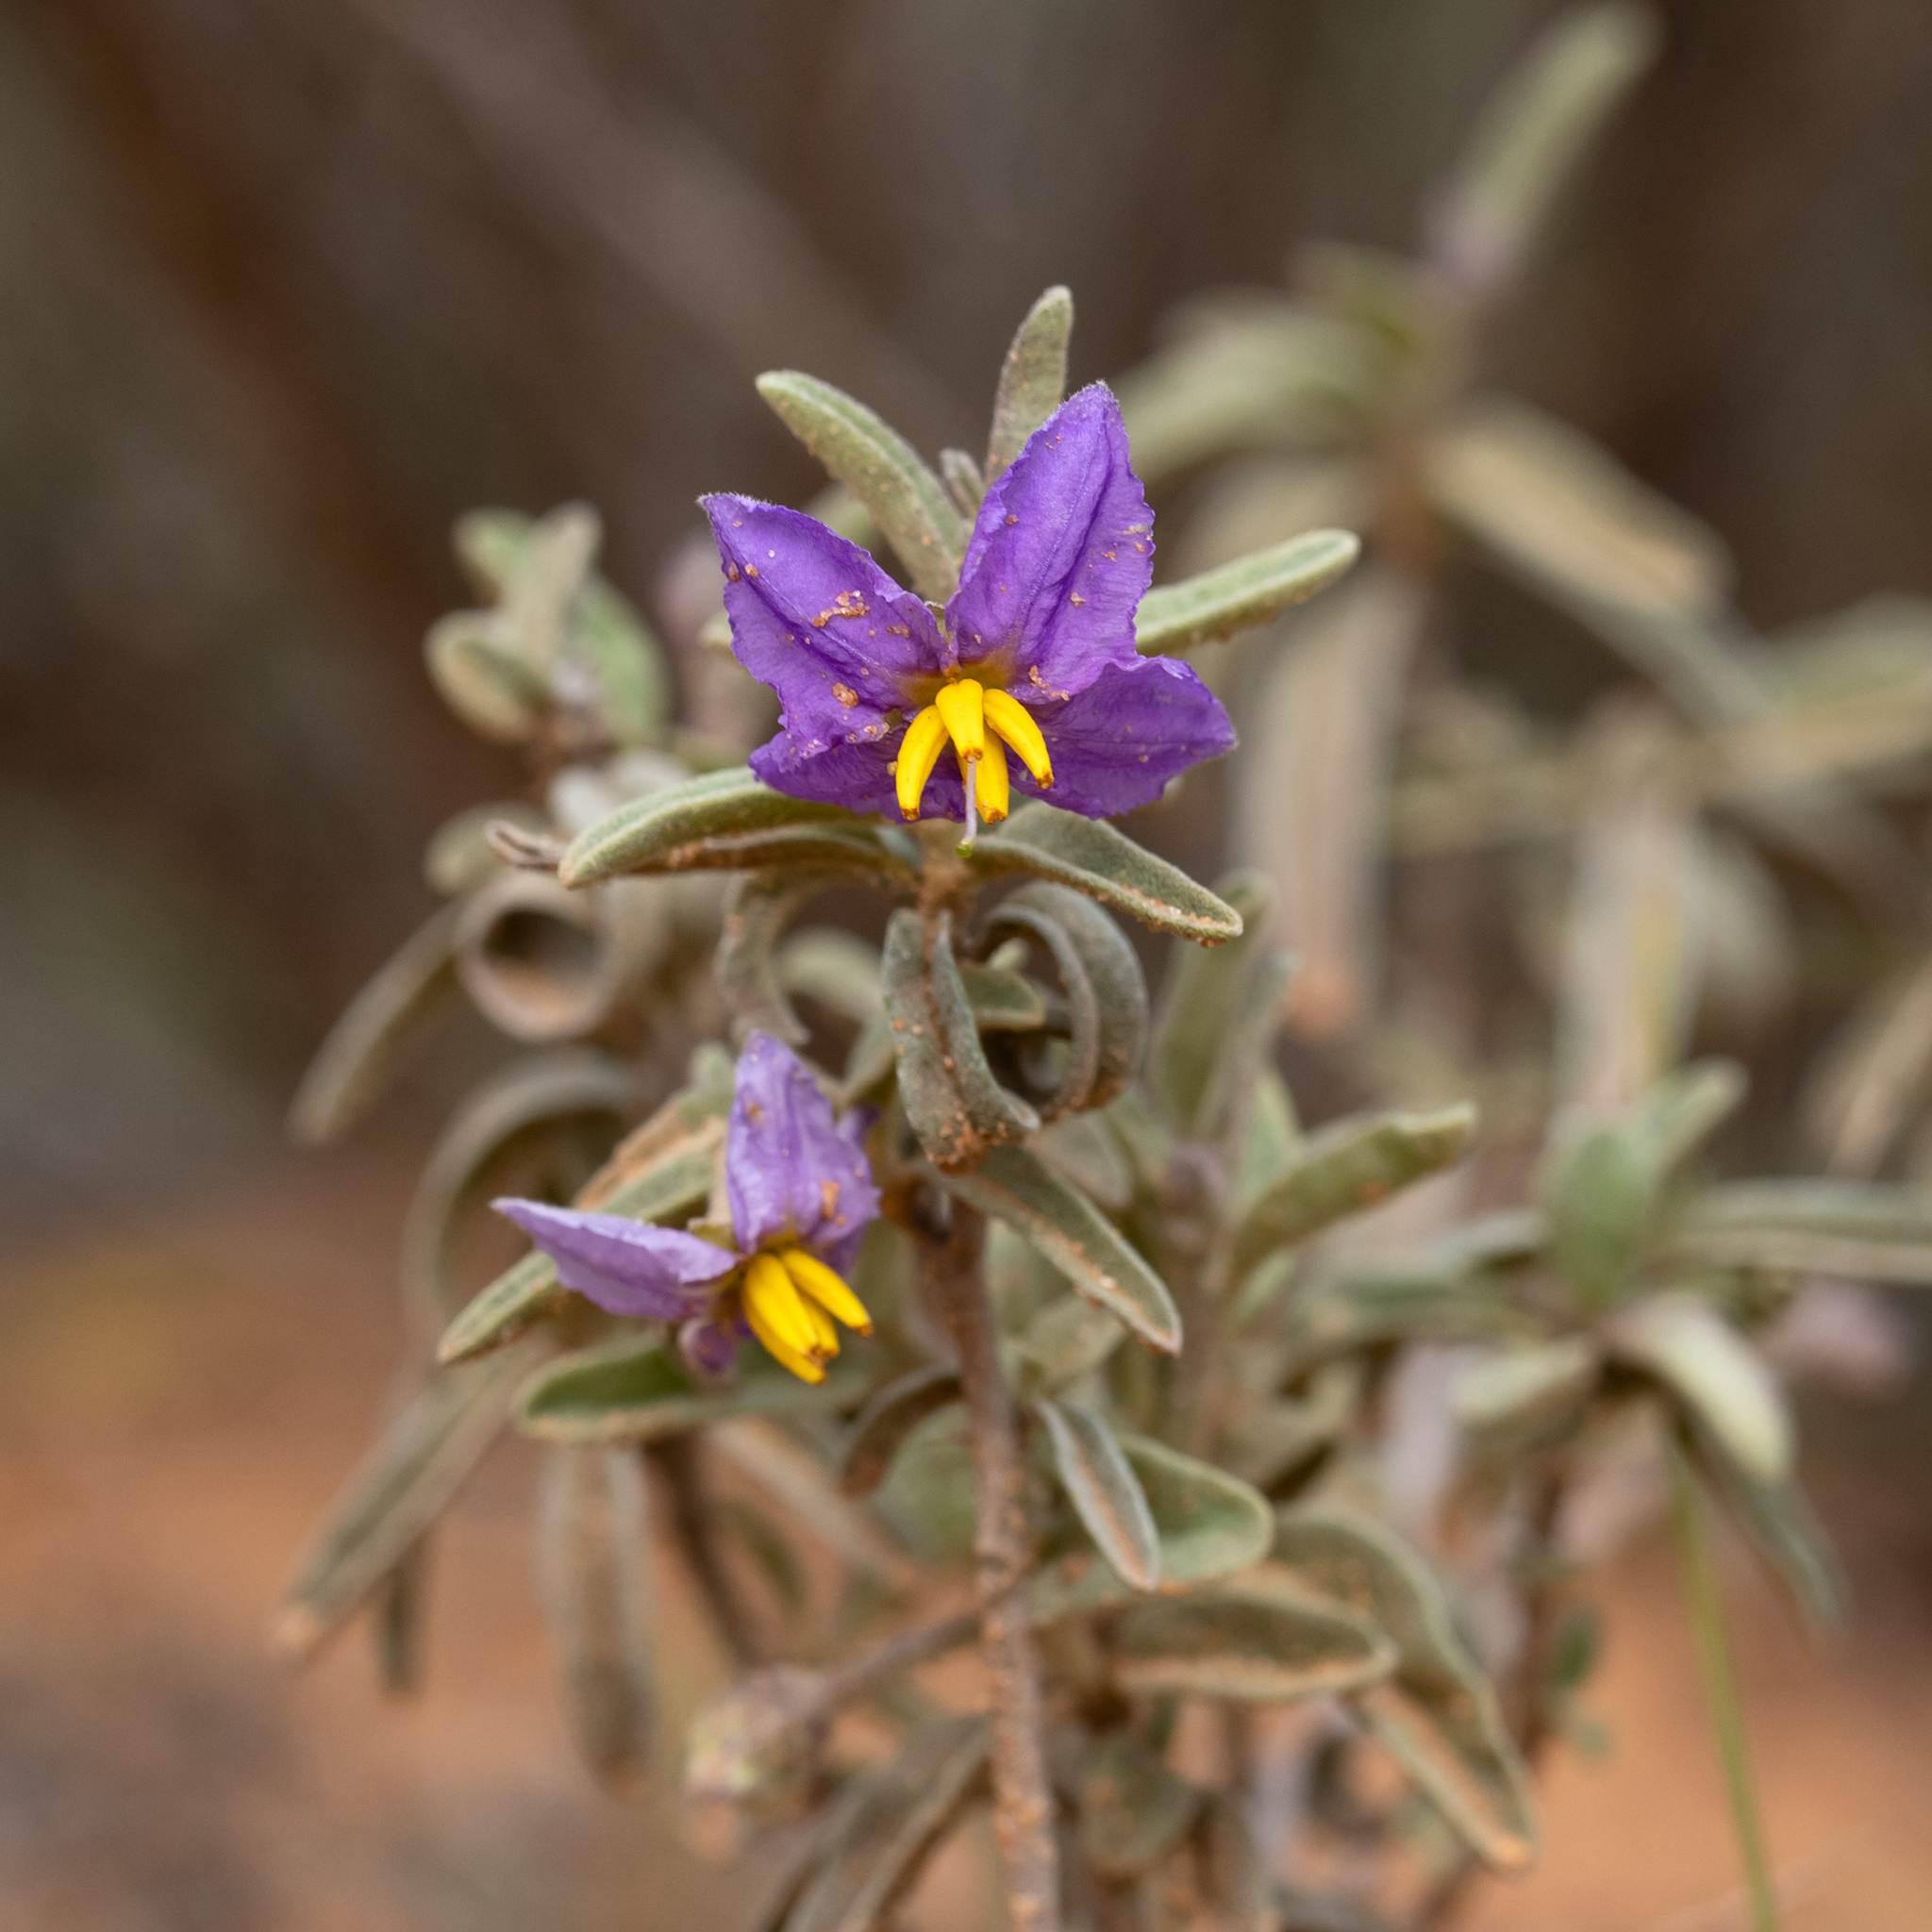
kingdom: Plantae
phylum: Tracheophyta
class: Magnoliopsida
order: Solanales
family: Solanaceae
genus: Solanum
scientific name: Solanum coactiliferum
